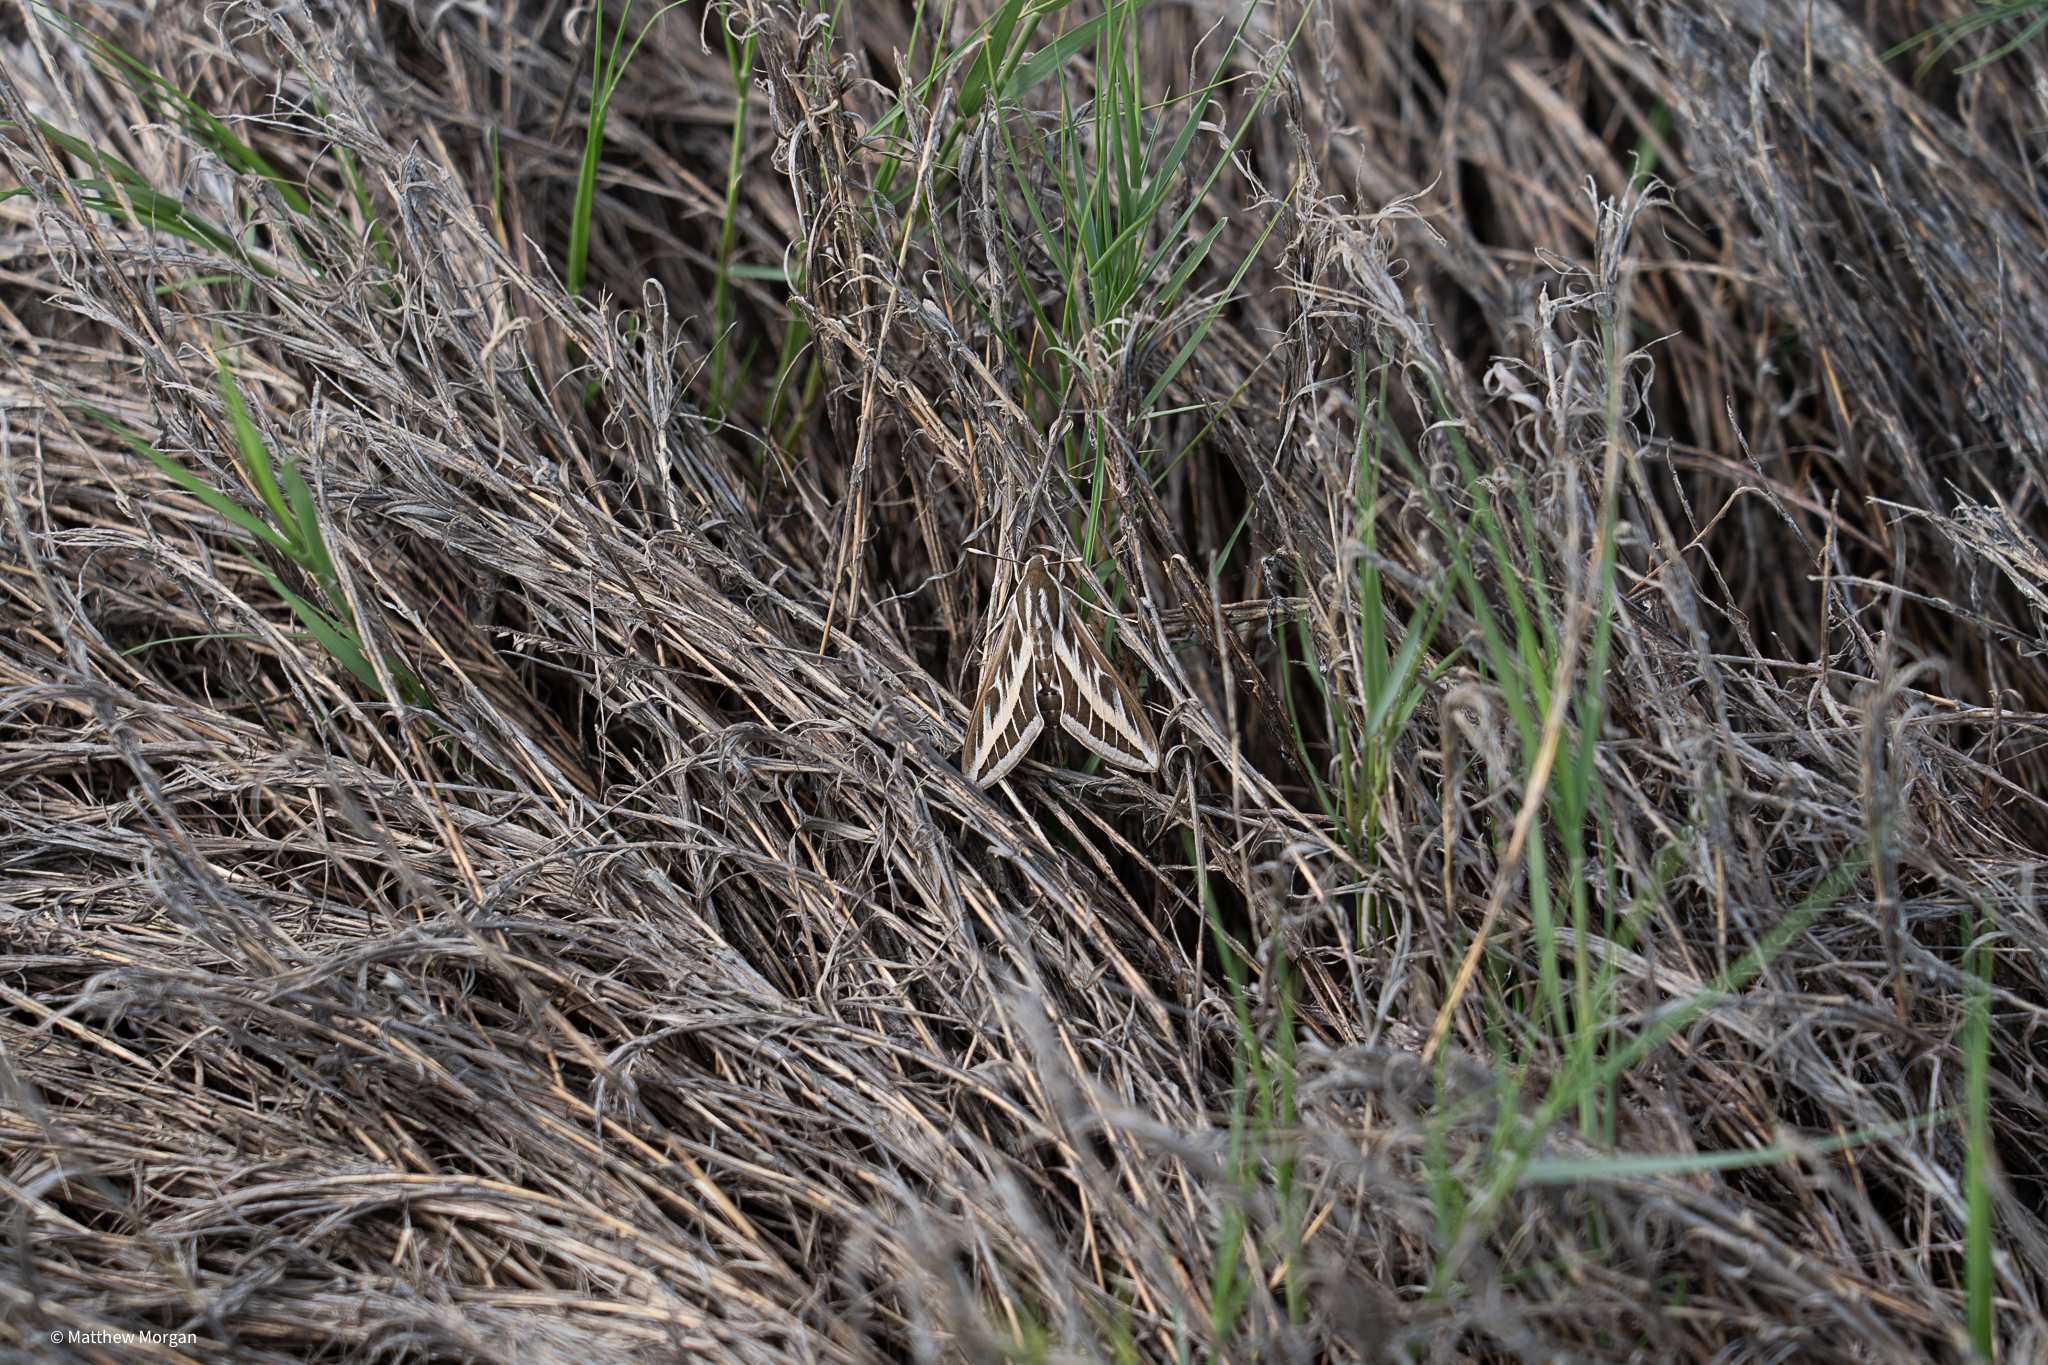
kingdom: Animalia
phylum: Arthropoda
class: Insecta
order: Lepidoptera
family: Sphingidae
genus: Hyles
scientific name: Hyles livornica
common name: Striped hawk-moth
